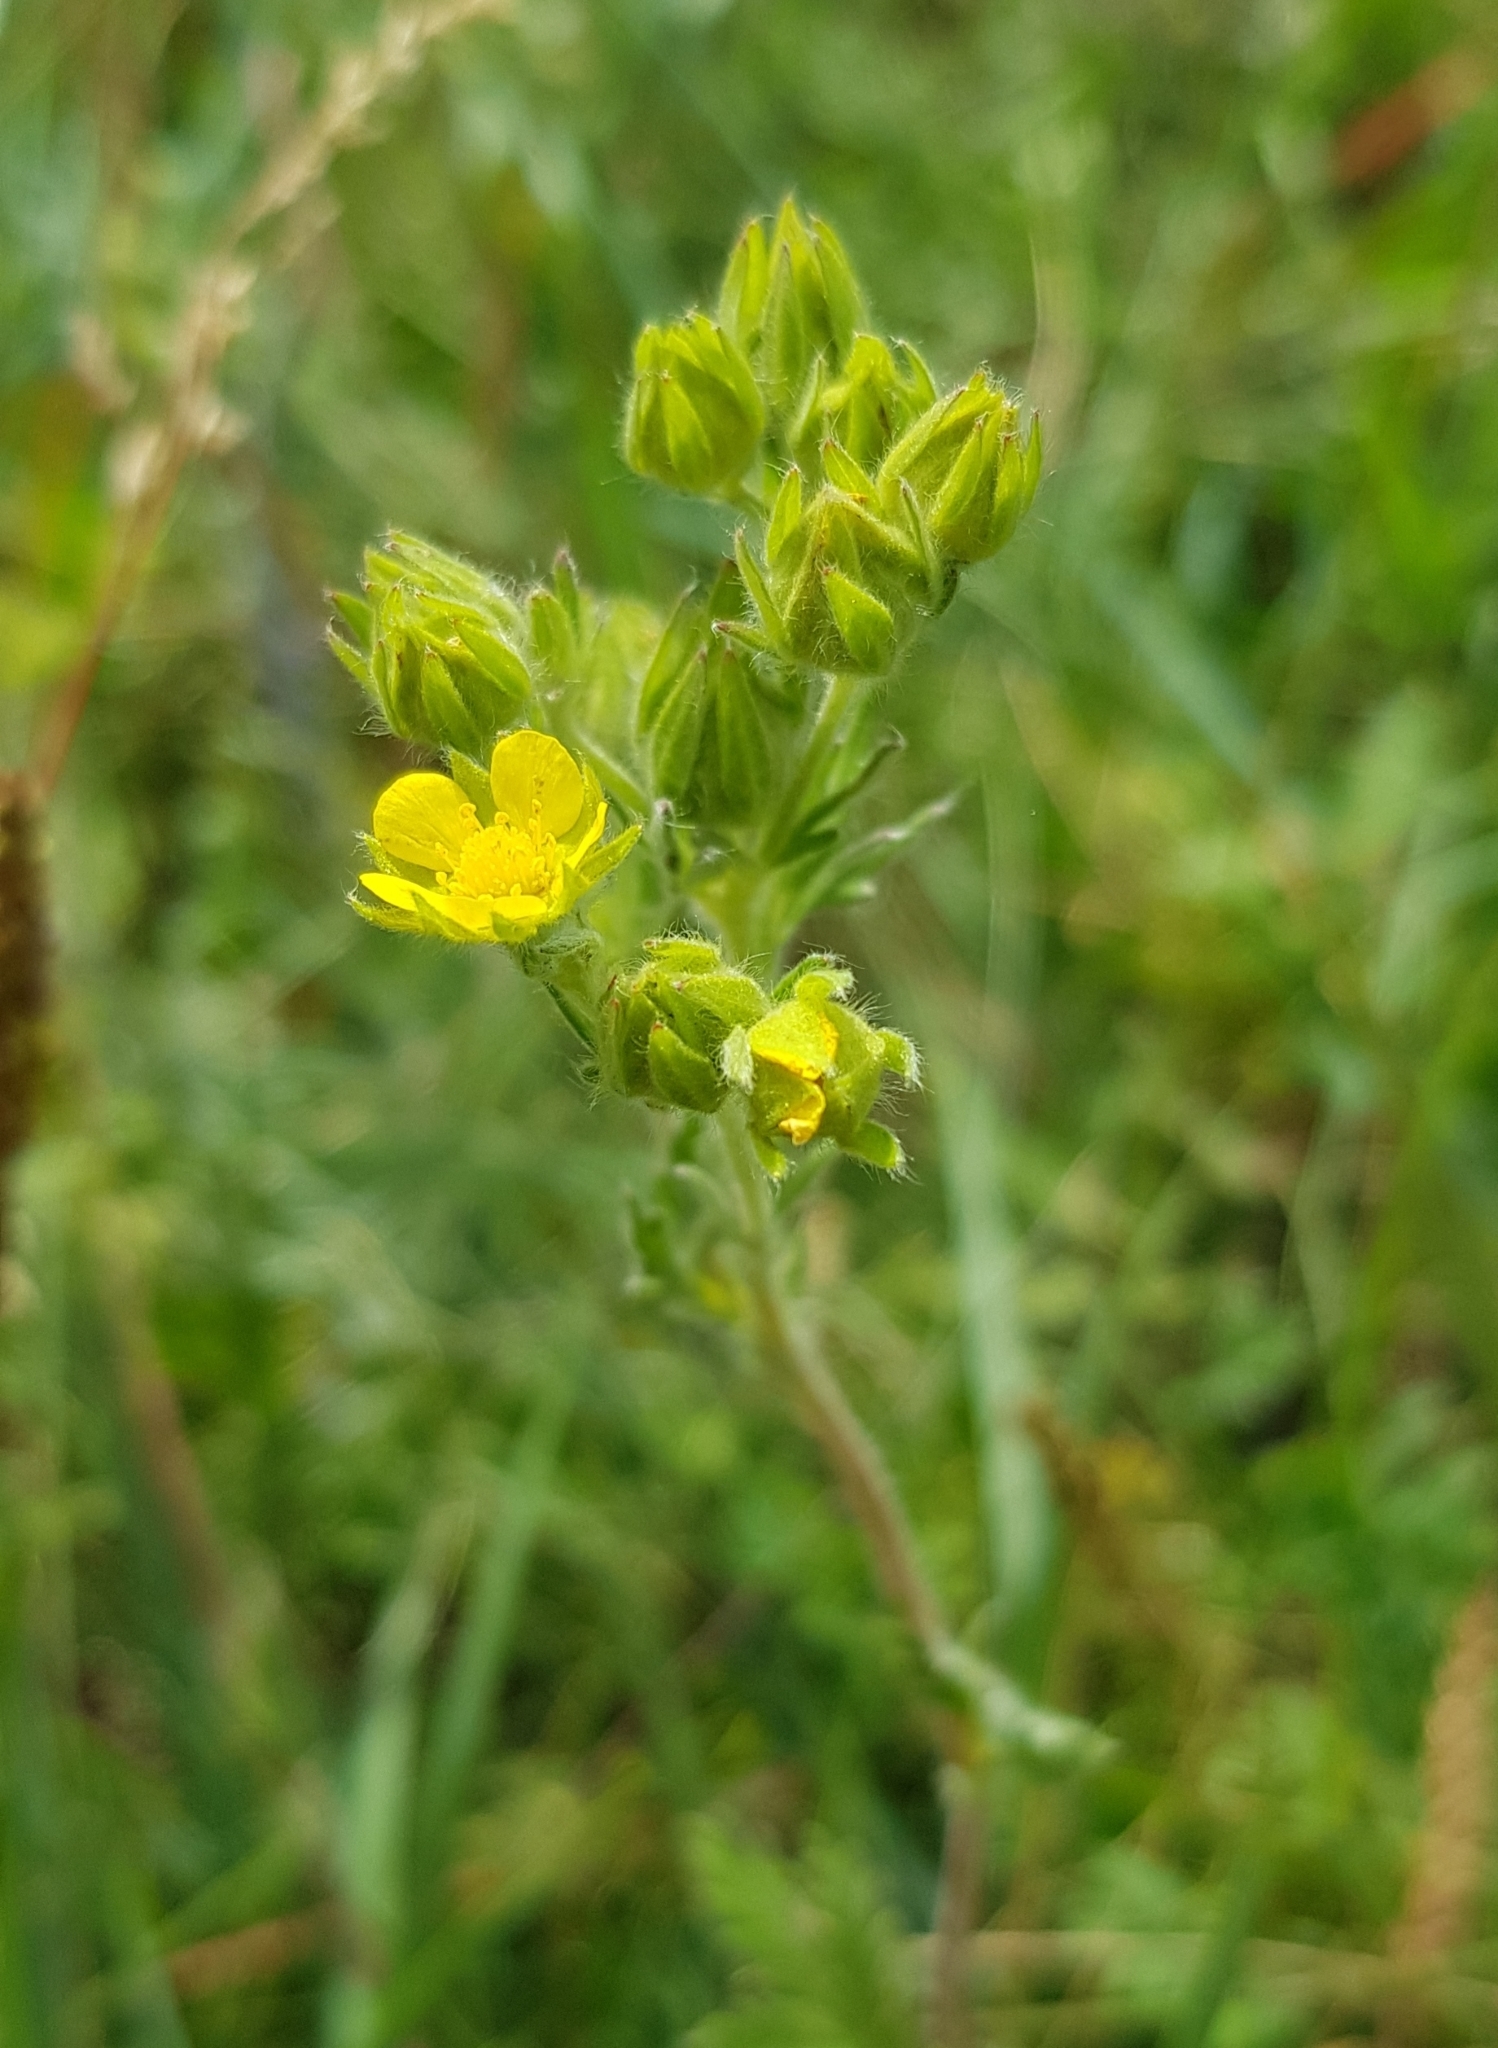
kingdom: Plantae
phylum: Tracheophyta
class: Magnoliopsida
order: Rosales
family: Rosaceae
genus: Potentilla
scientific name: Potentilla tanacetifolia
